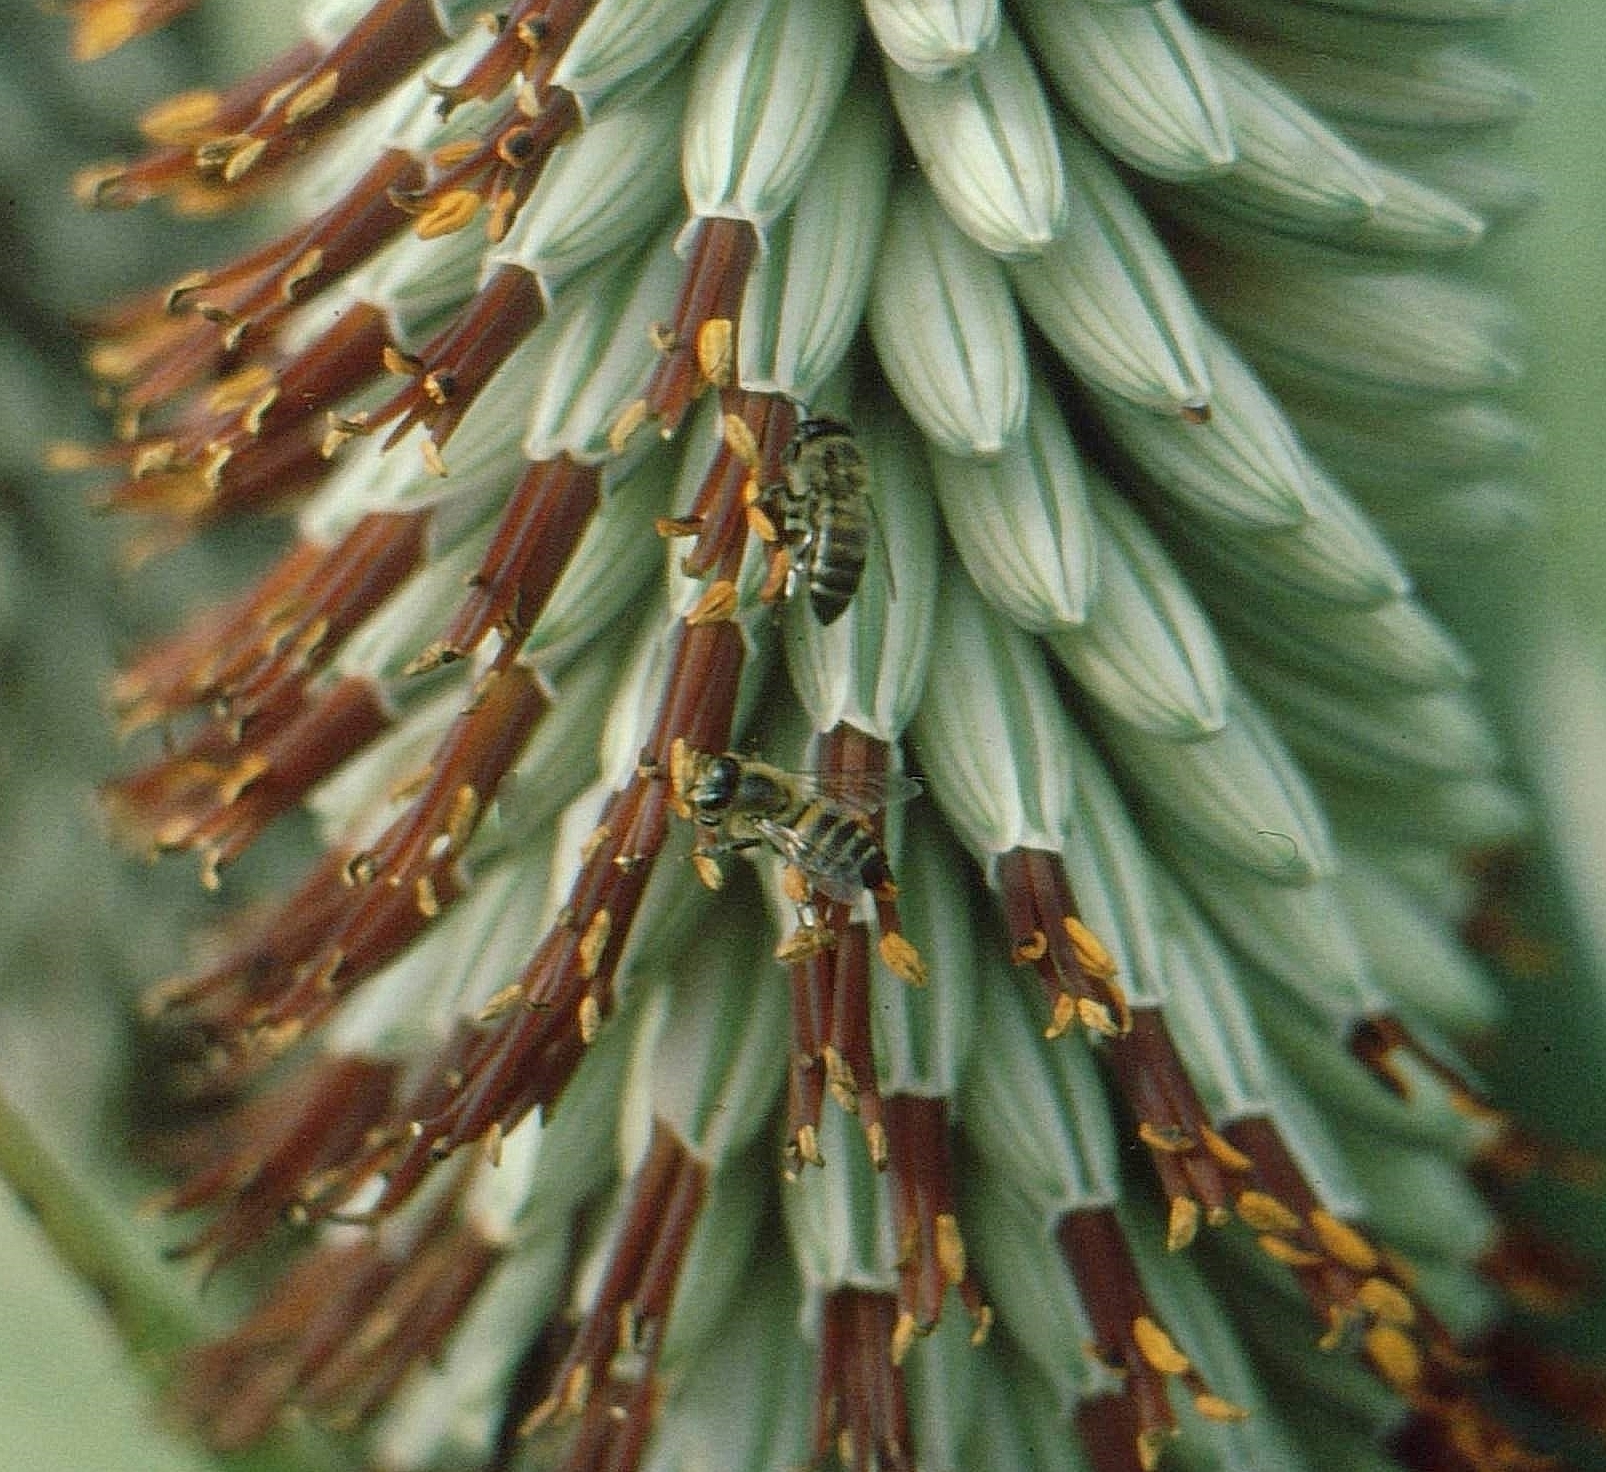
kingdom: Animalia
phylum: Arthropoda
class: Insecta
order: Hymenoptera
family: Apidae
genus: Apis
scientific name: Apis mellifera
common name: Honey bee
